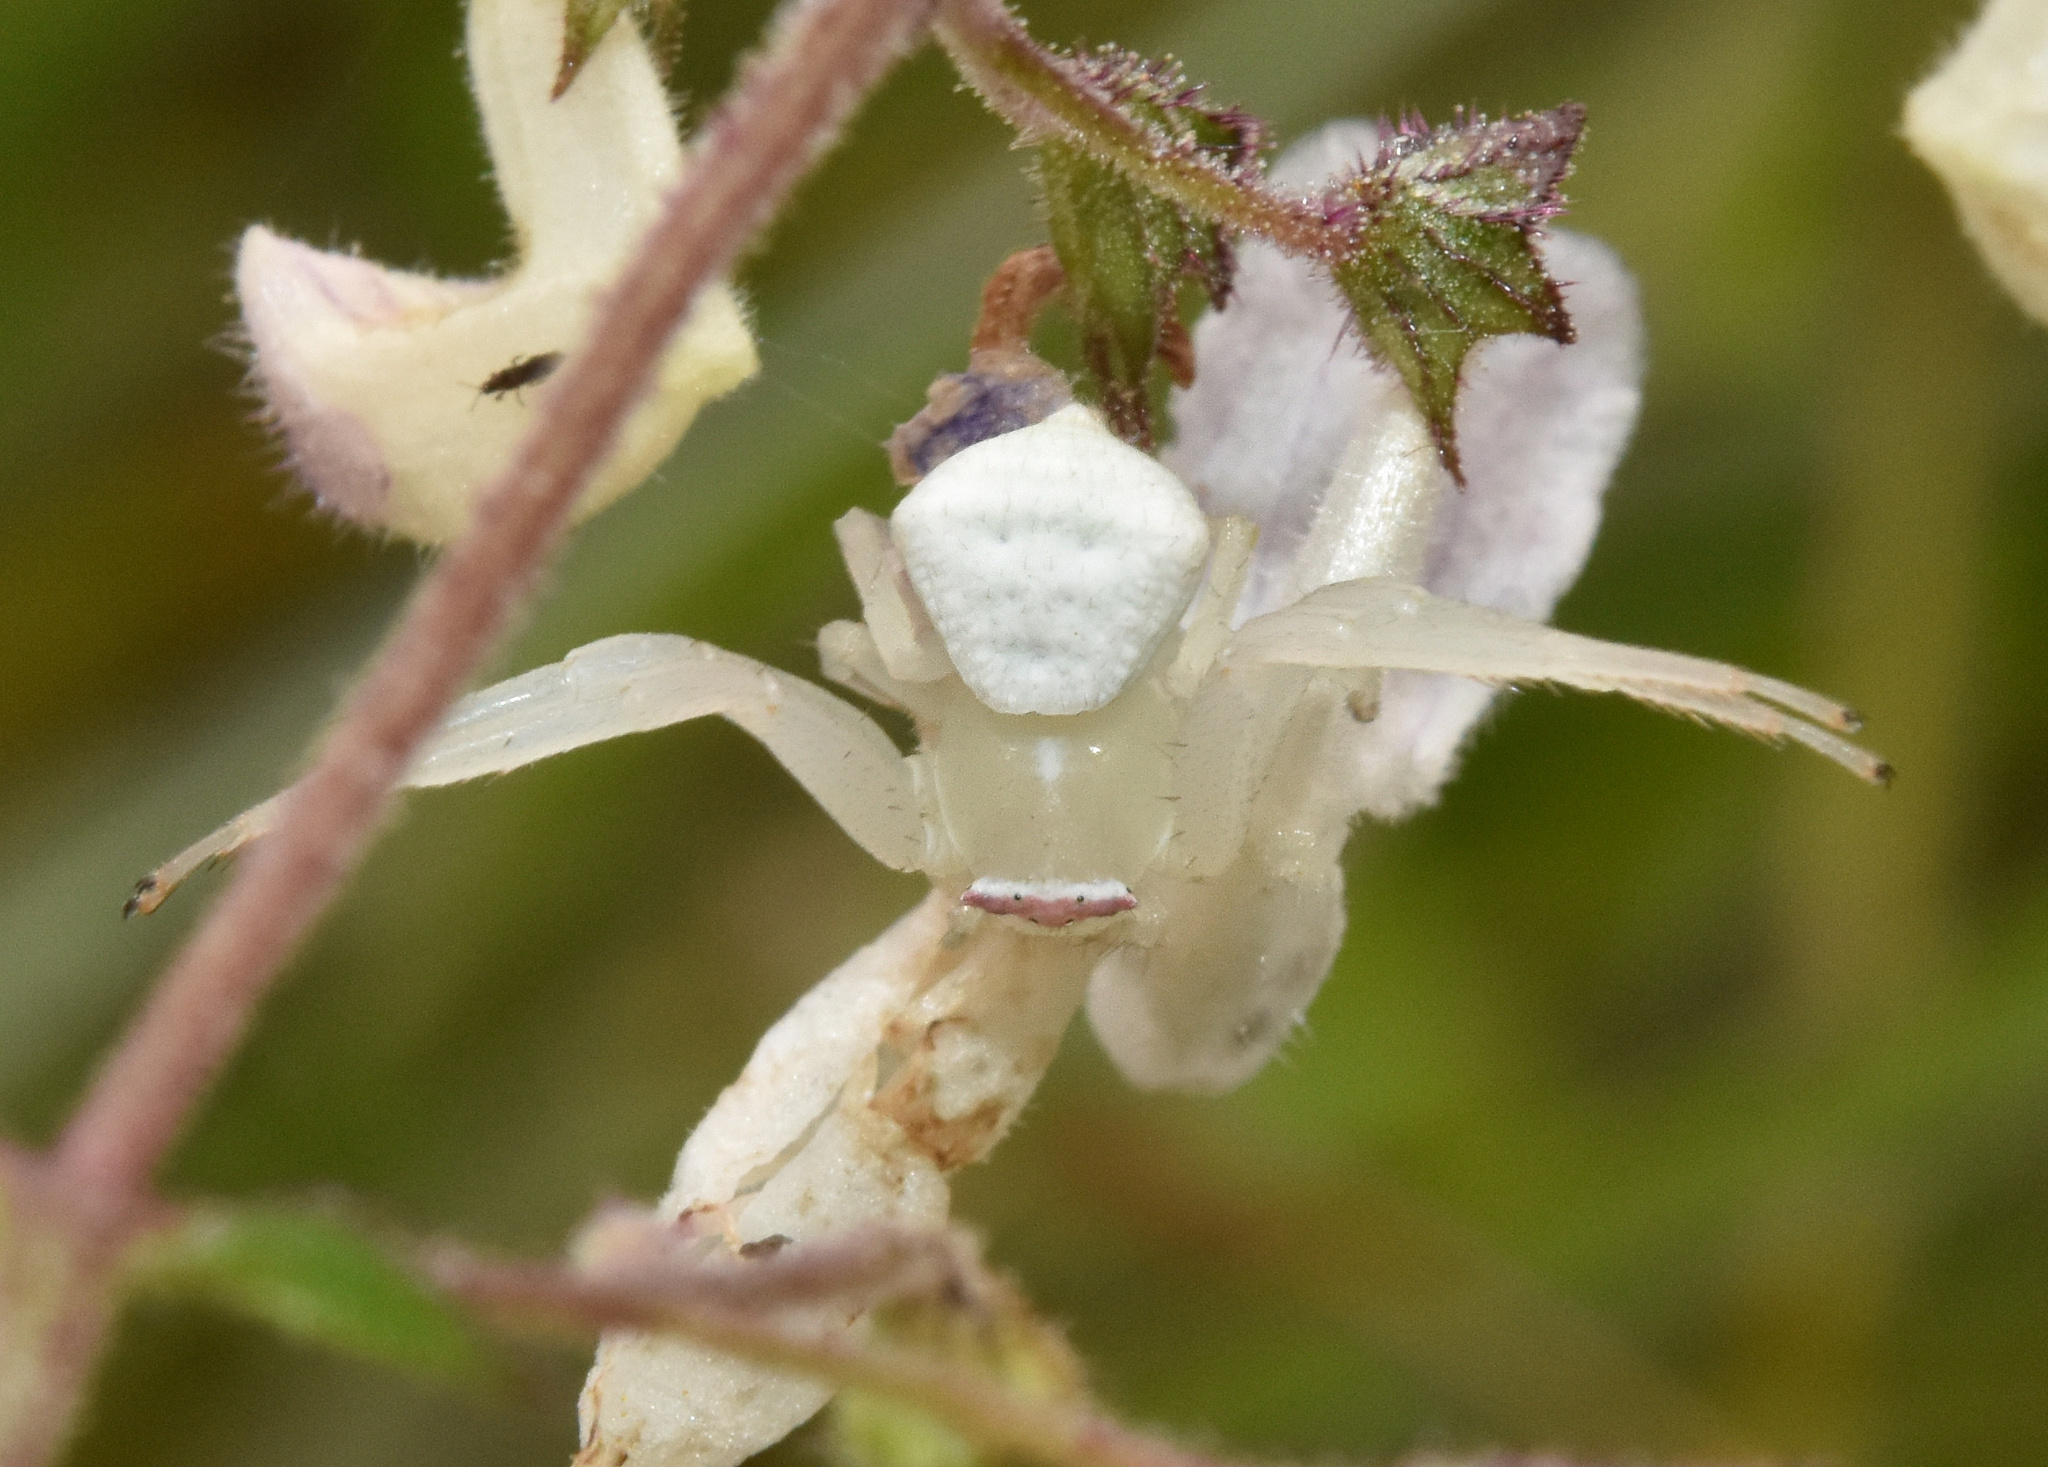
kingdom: Animalia
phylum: Arthropoda
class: Arachnida
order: Araneae
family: Thomisidae
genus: Thomisus
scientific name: Thomisus australis
